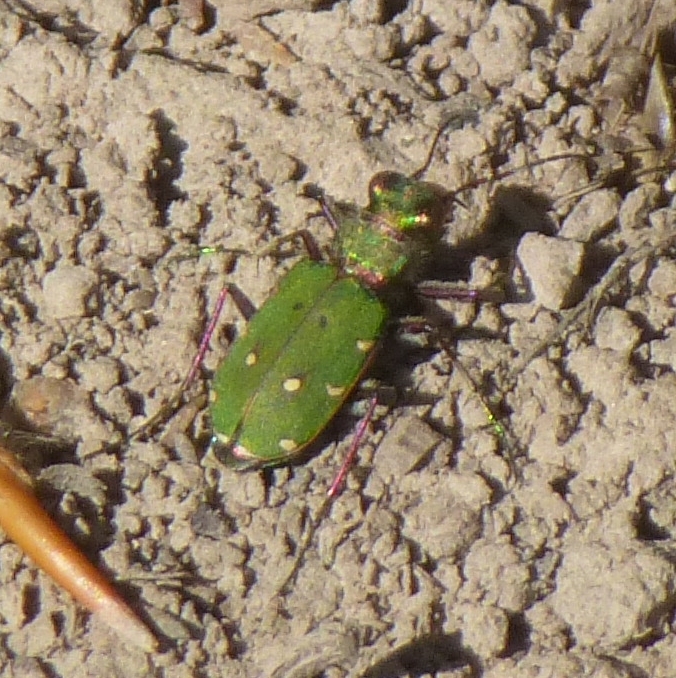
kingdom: Animalia
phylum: Arthropoda
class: Insecta
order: Coleoptera
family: Carabidae
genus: Cicindela
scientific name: Cicindela campestris
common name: Common tiger beetle
